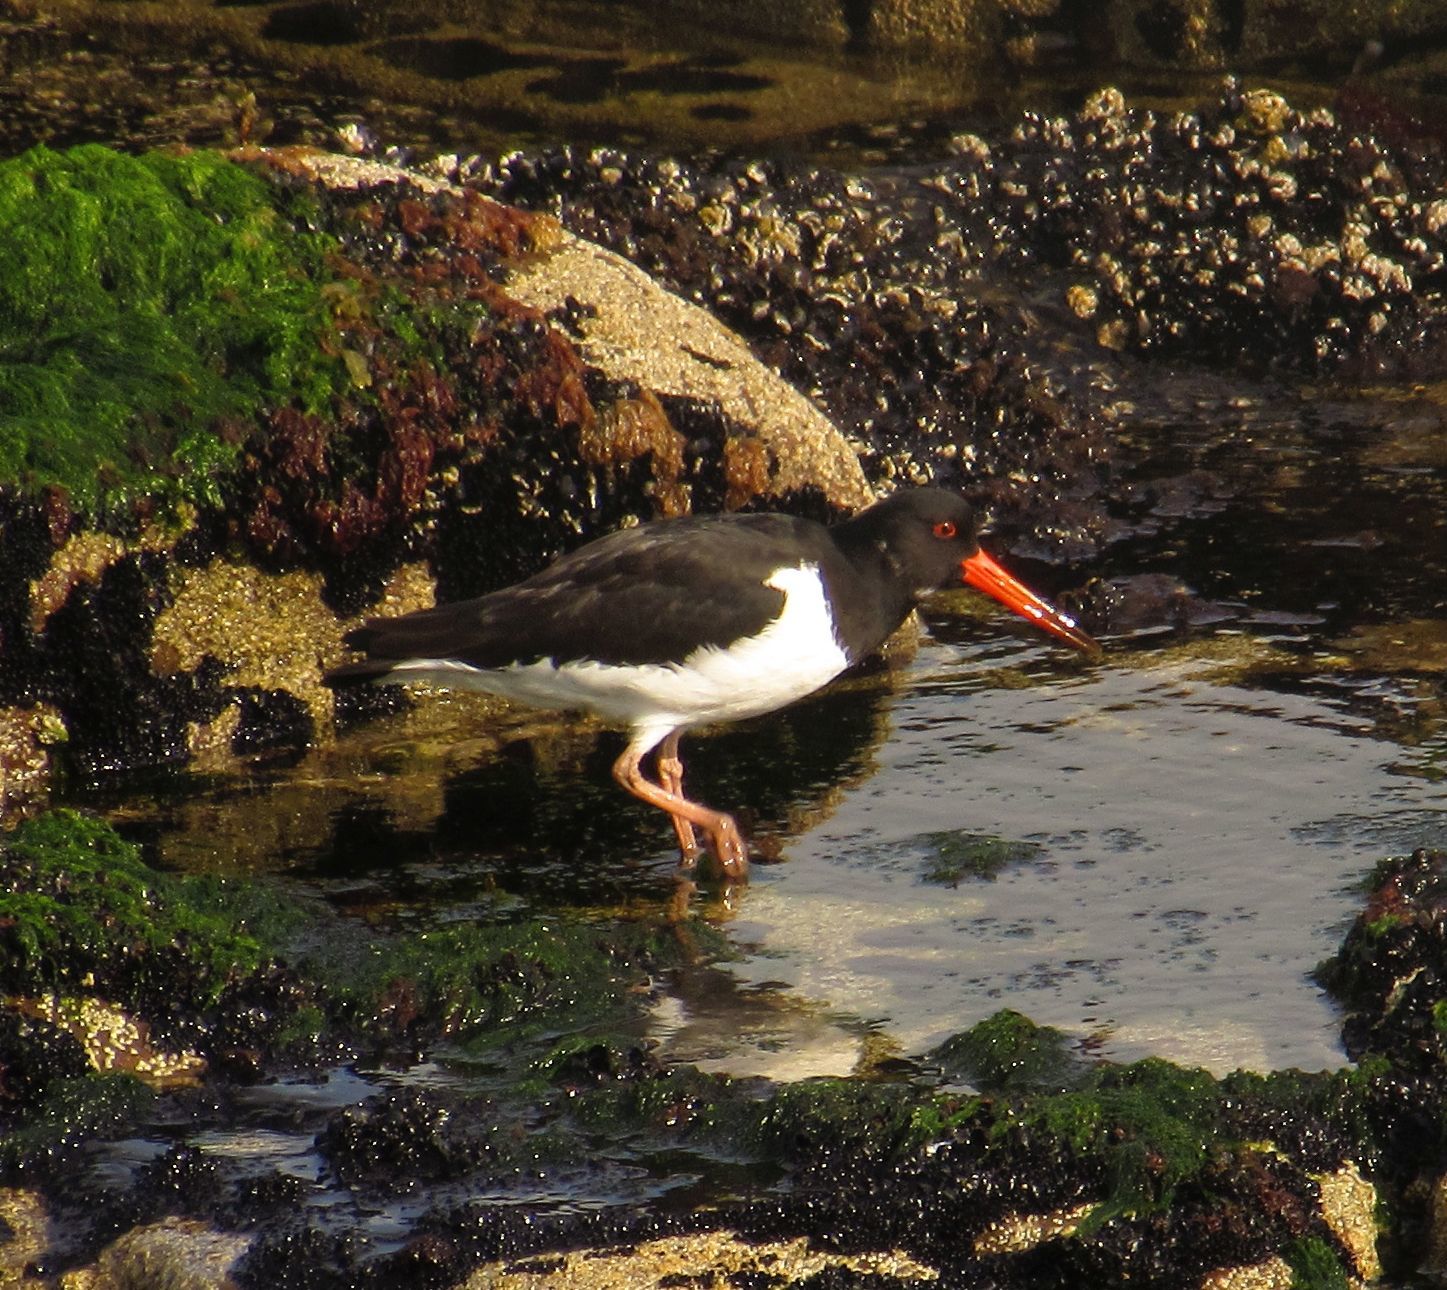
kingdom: Animalia
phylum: Chordata
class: Aves
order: Charadriiformes
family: Haematopodidae
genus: Haematopus
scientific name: Haematopus ostralegus
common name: Eurasian oystercatcher
